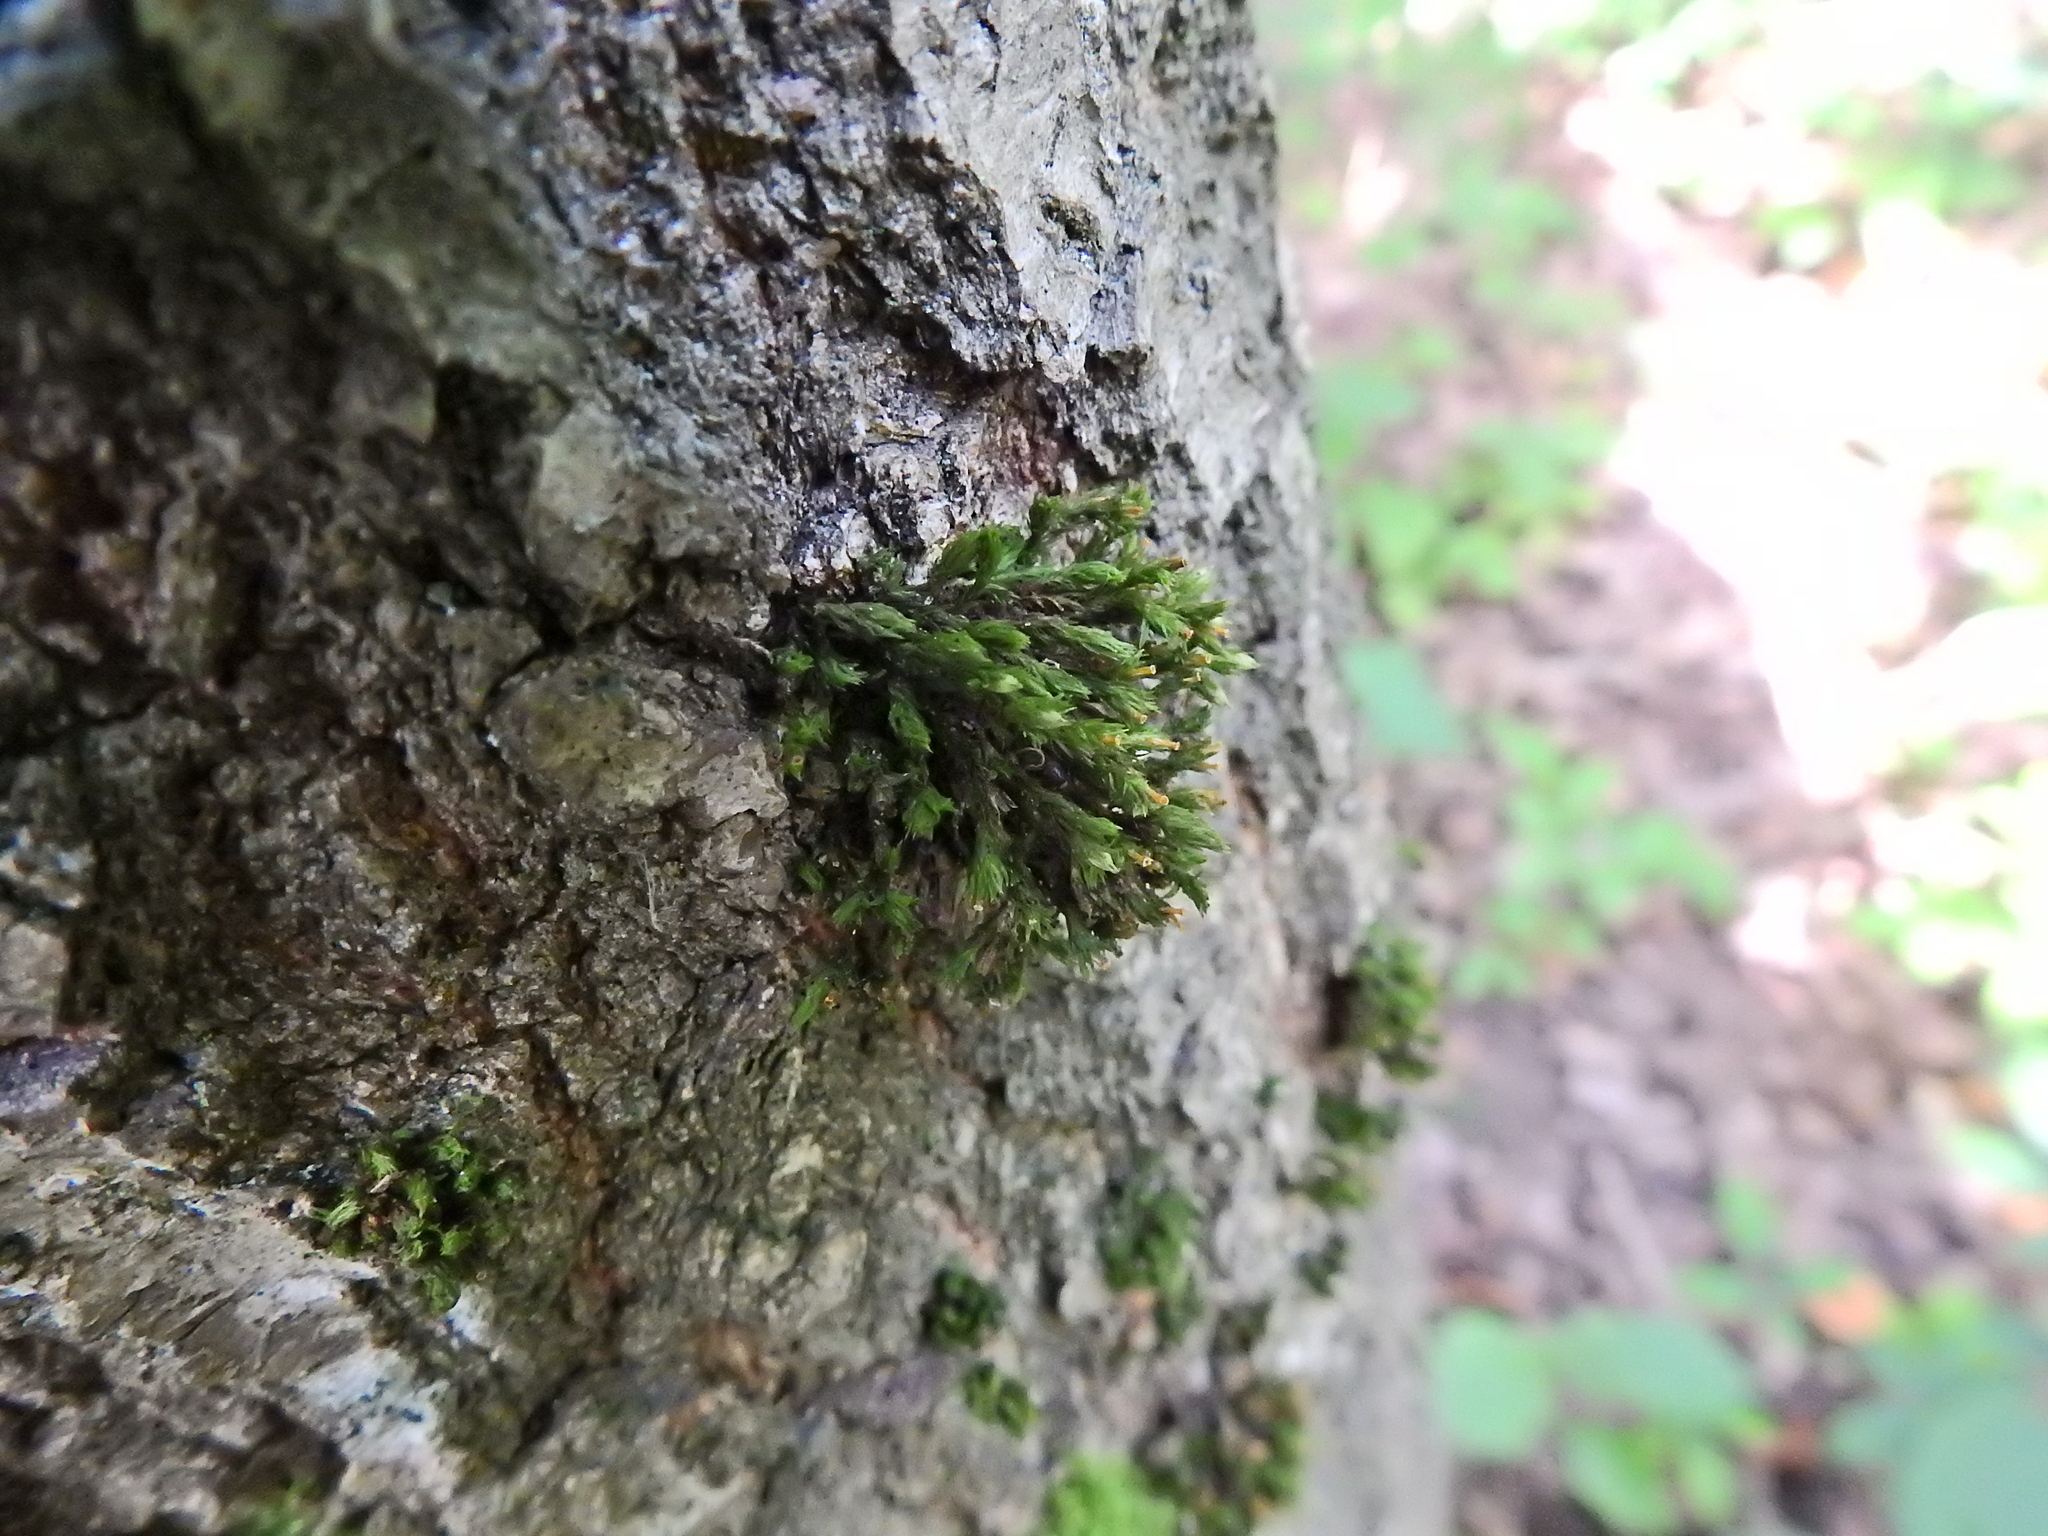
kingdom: Plantae
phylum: Bryophyta
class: Bryopsida
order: Orthotrichales
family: Orthotrichaceae
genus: Lewinskya
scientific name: Lewinskya affinis
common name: Wood bristle-moss
